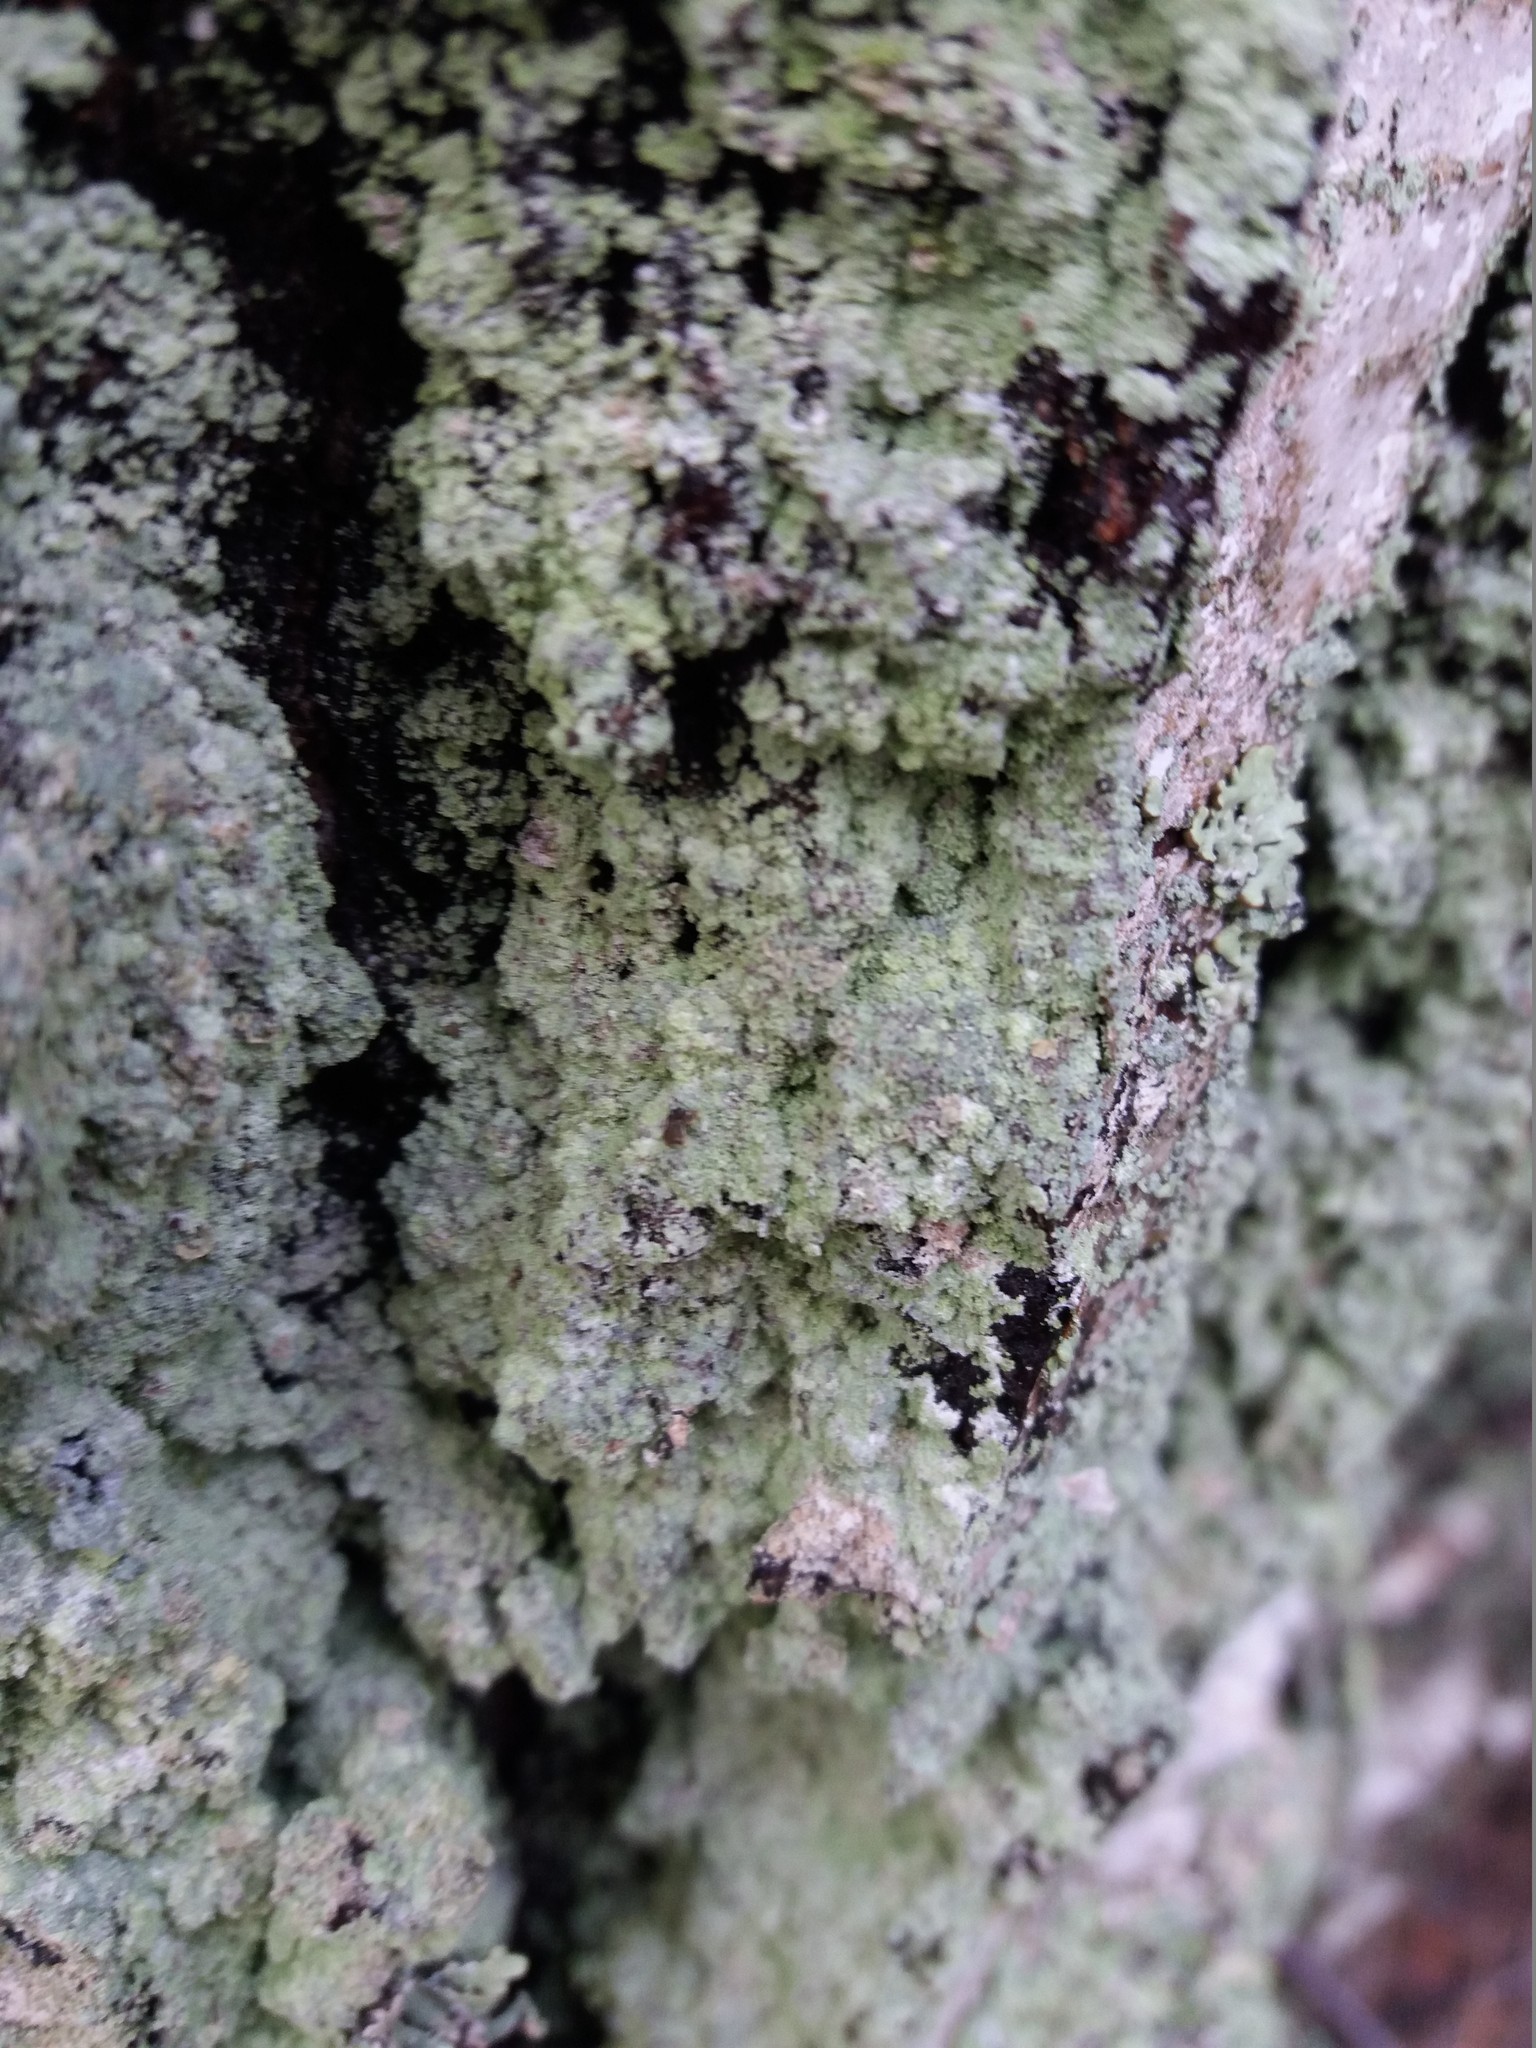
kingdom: Fungi
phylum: Ascomycota
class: Lecanoromycetes
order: Lecanorales
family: Stereocaulaceae
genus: Lepraria
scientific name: Lepraria
